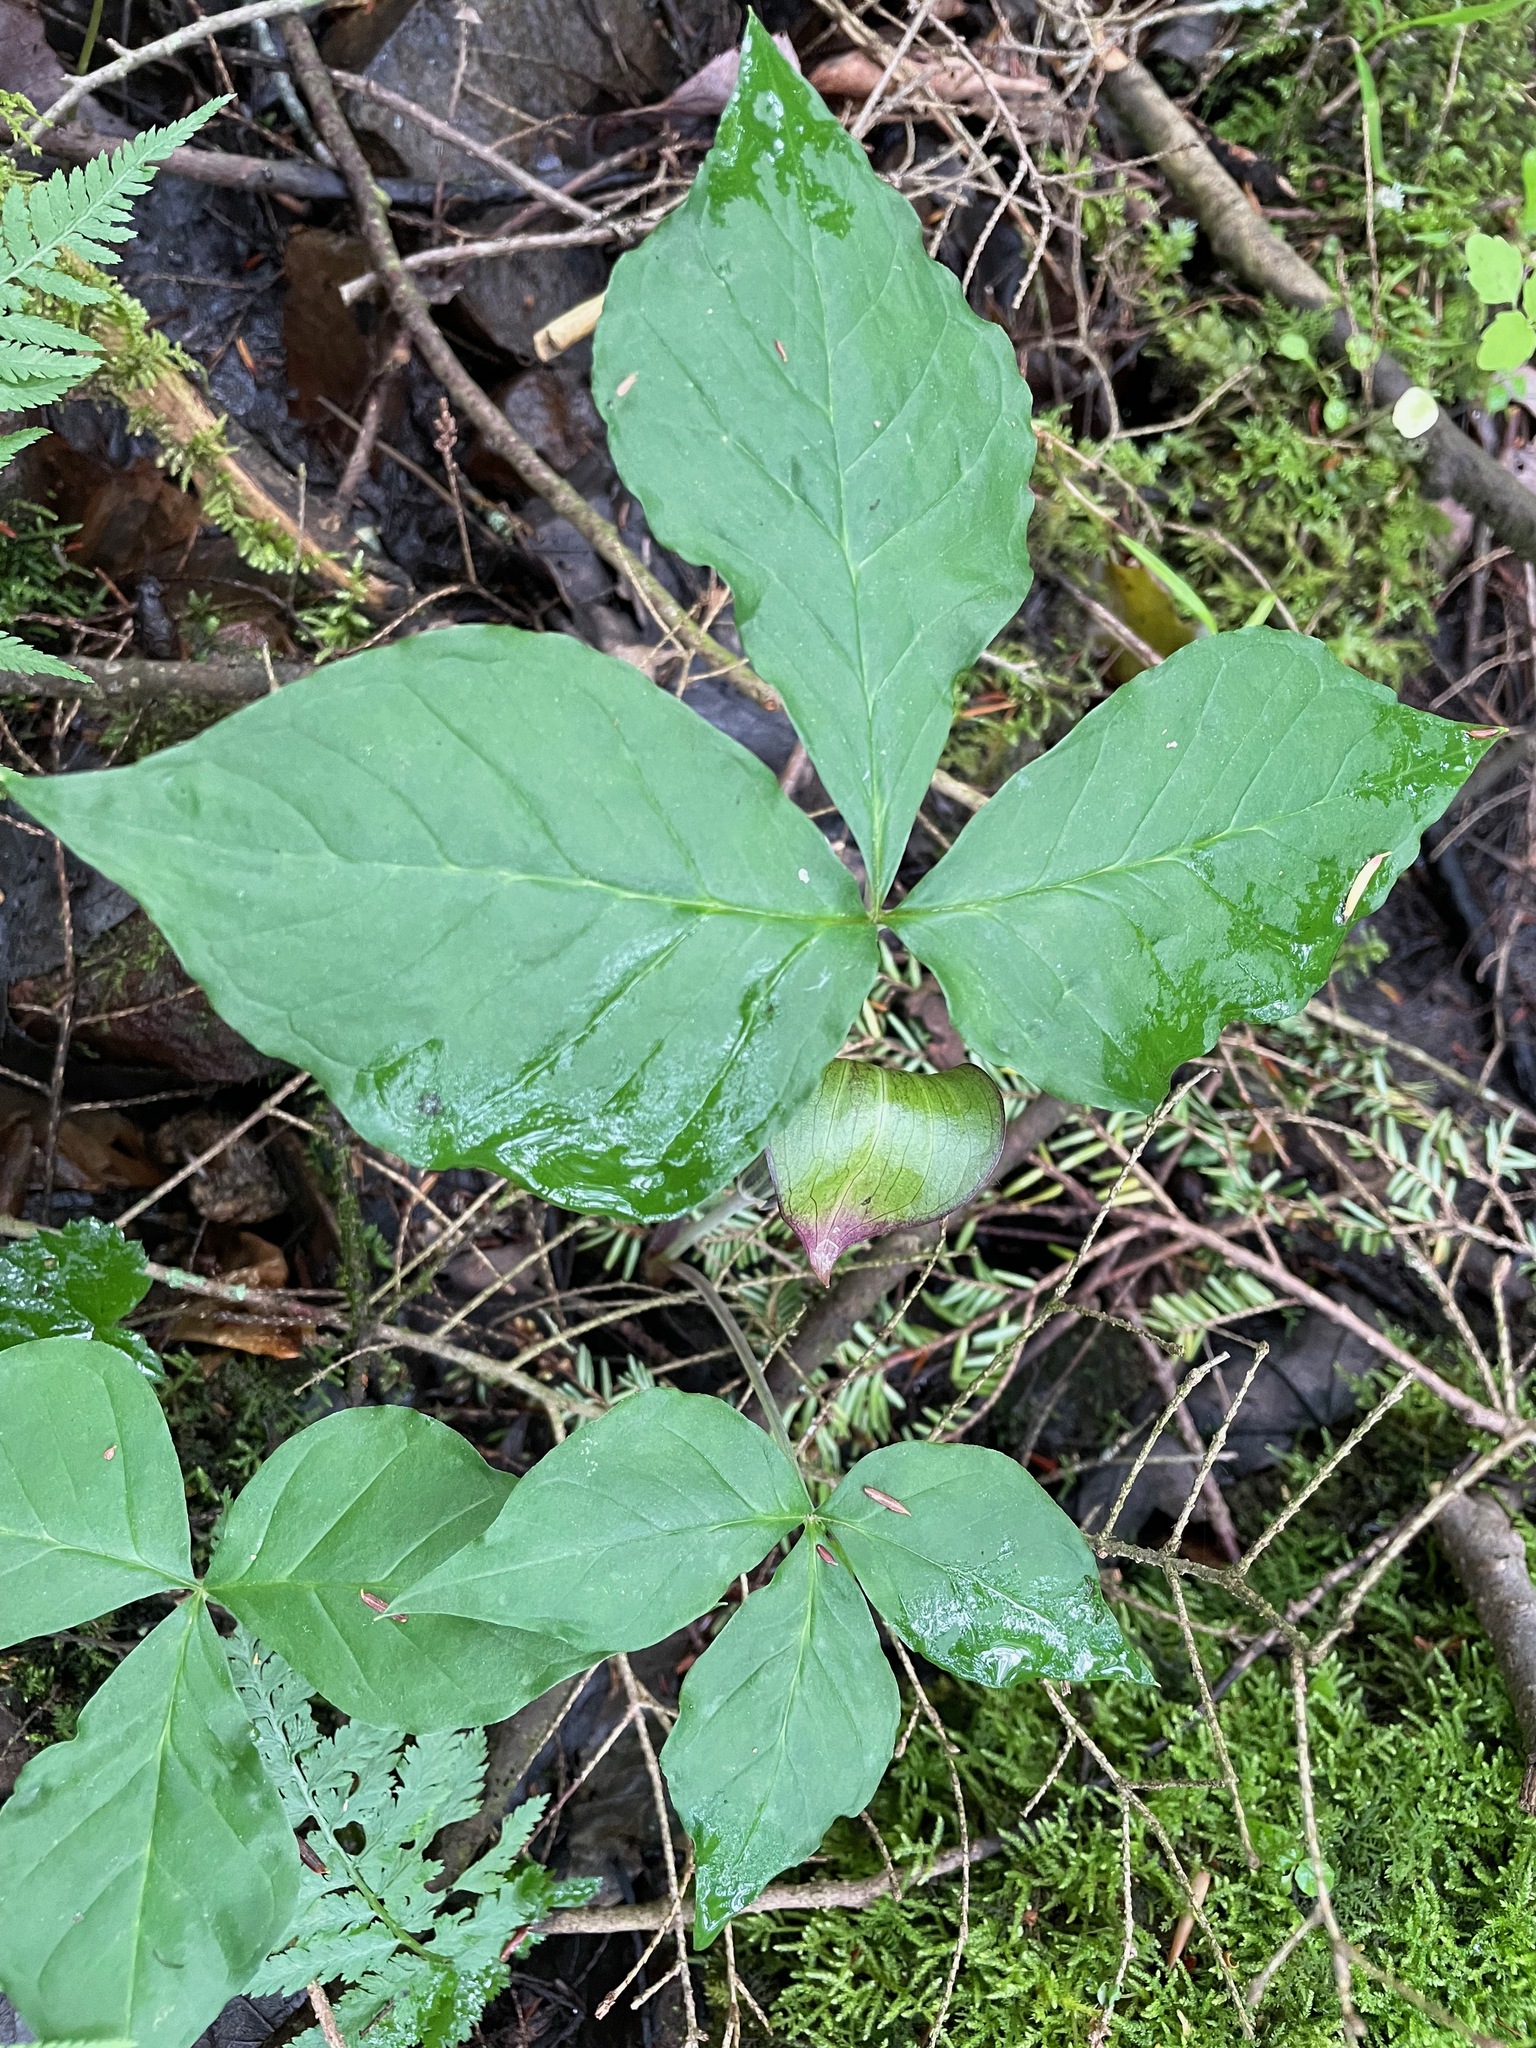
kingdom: Plantae
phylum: Tracheophyta
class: Liliopsida
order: Alismatales
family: Araceae
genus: Arisaema
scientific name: Arisaema triphyllum
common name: Jack-in-the-pulpit
